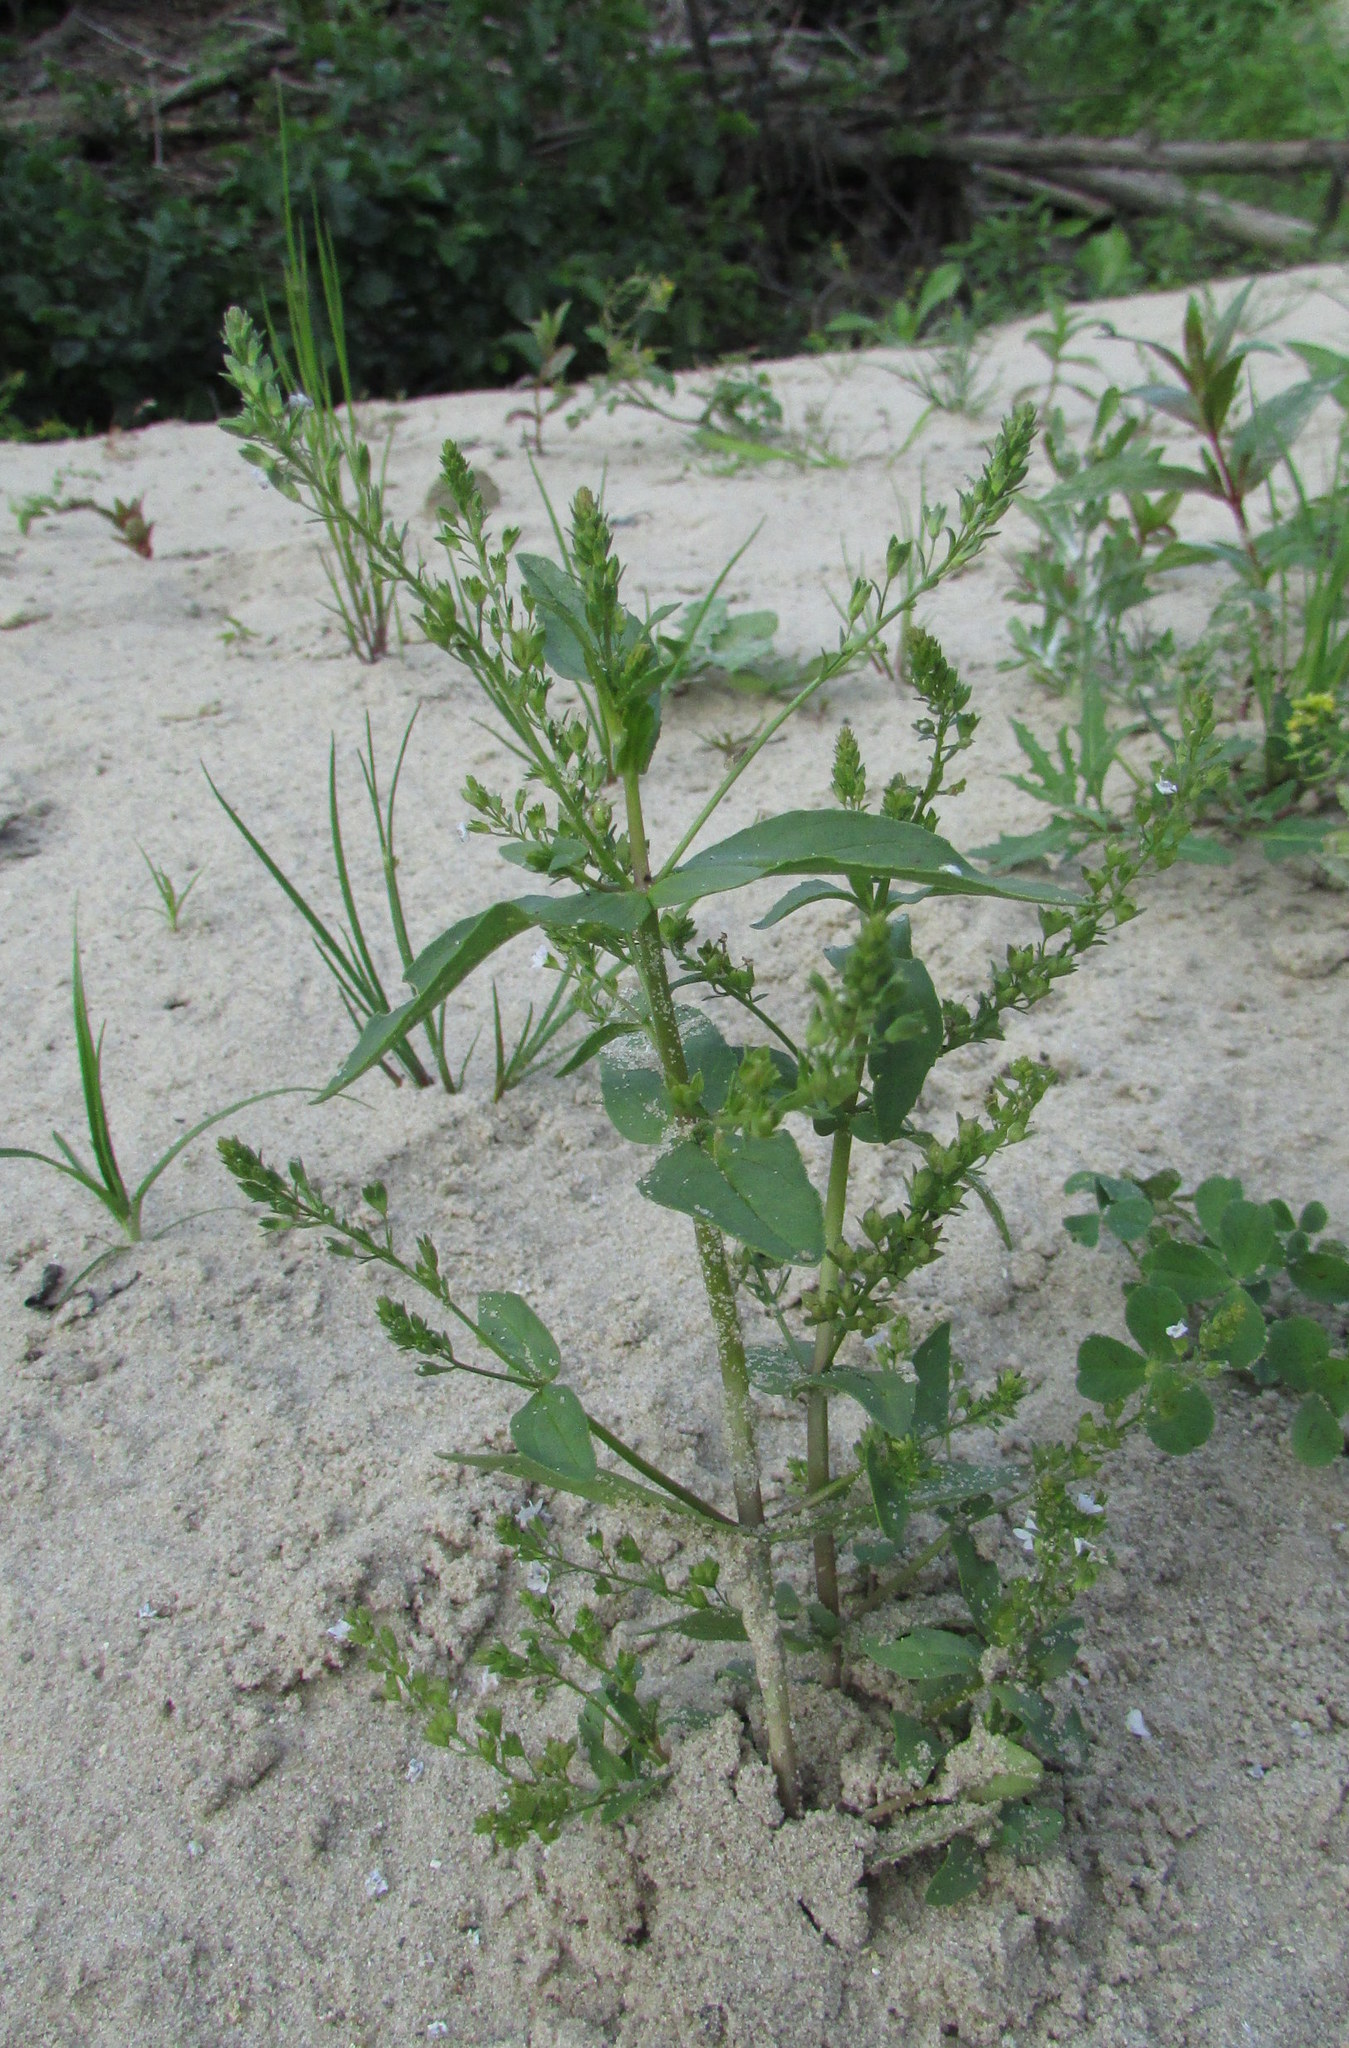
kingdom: Plantae
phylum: Tracheophyta
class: Magnoliopsida
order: Lamiales
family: Plantaginaceae
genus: Veronica
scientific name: Veronica anagallis-aquatica
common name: Water speedwell
